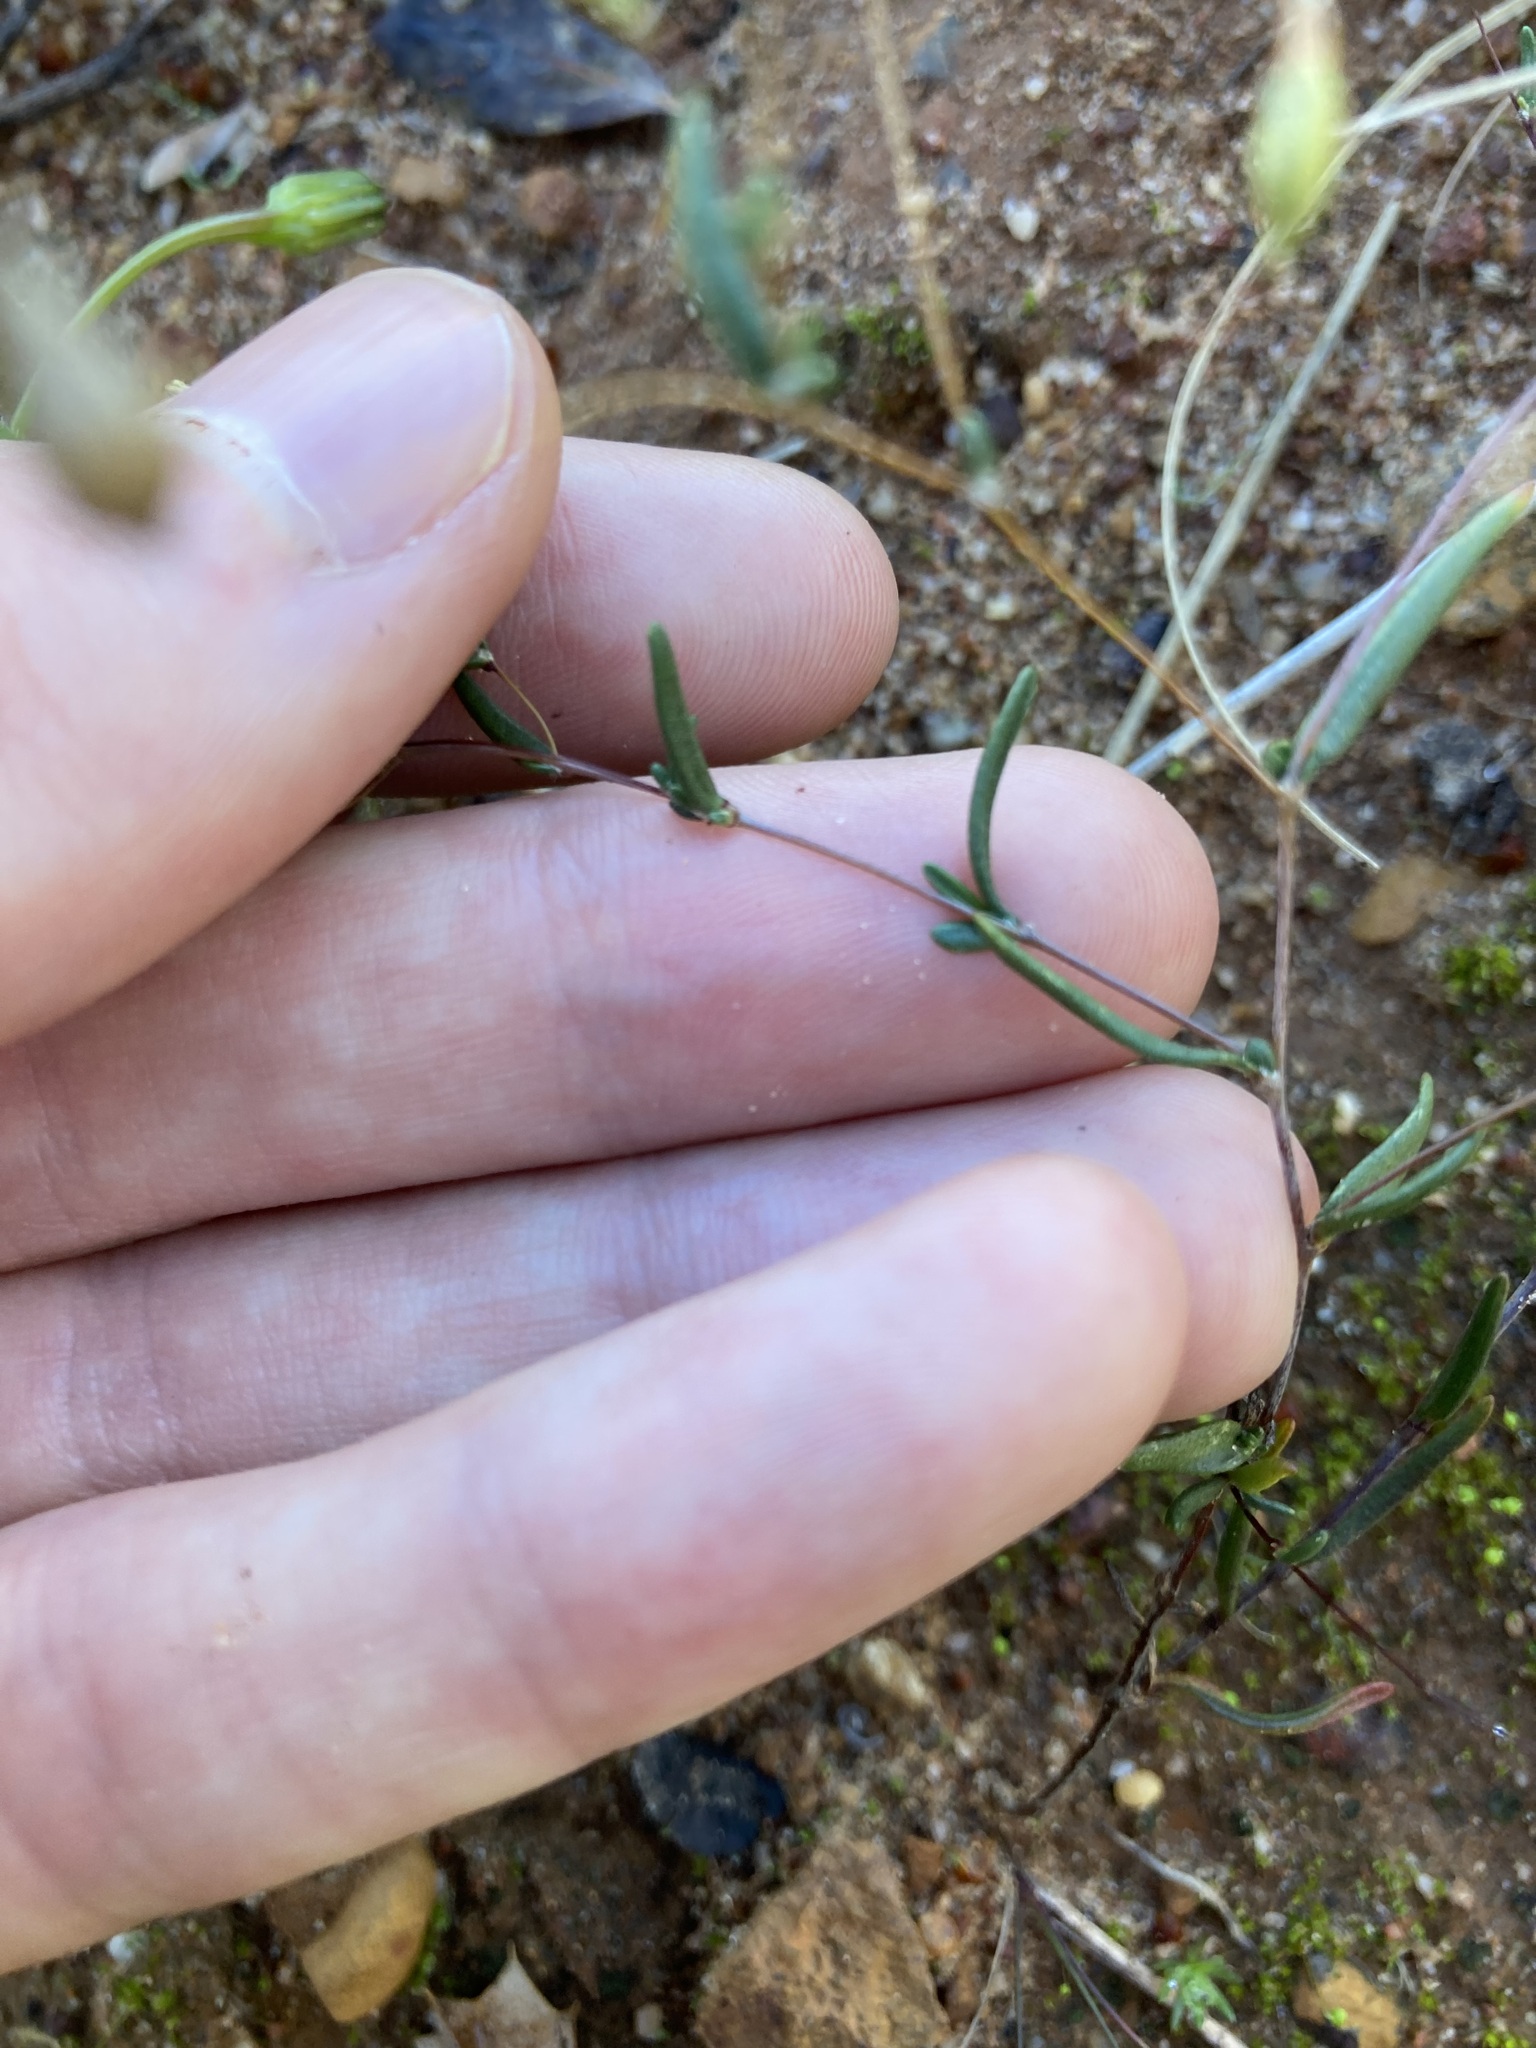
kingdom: Plantae
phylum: Tracheophyta
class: Magnoliopsida
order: Asterales
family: Asteraceae
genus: Siemssenia
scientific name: Siemssenia capillaris
